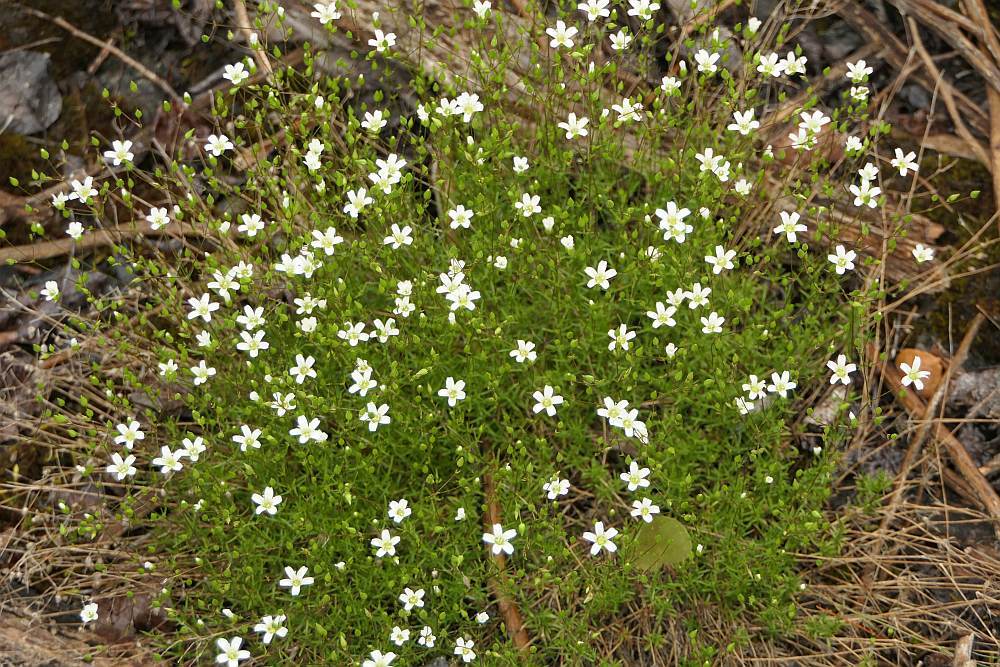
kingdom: Plantae
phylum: Tracheophyta
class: Magnoliopsida
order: Caryophyllales
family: Caryophyllaceae
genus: Sabulina
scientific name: Sabulina michauxii
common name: Michaux's stitchwort
